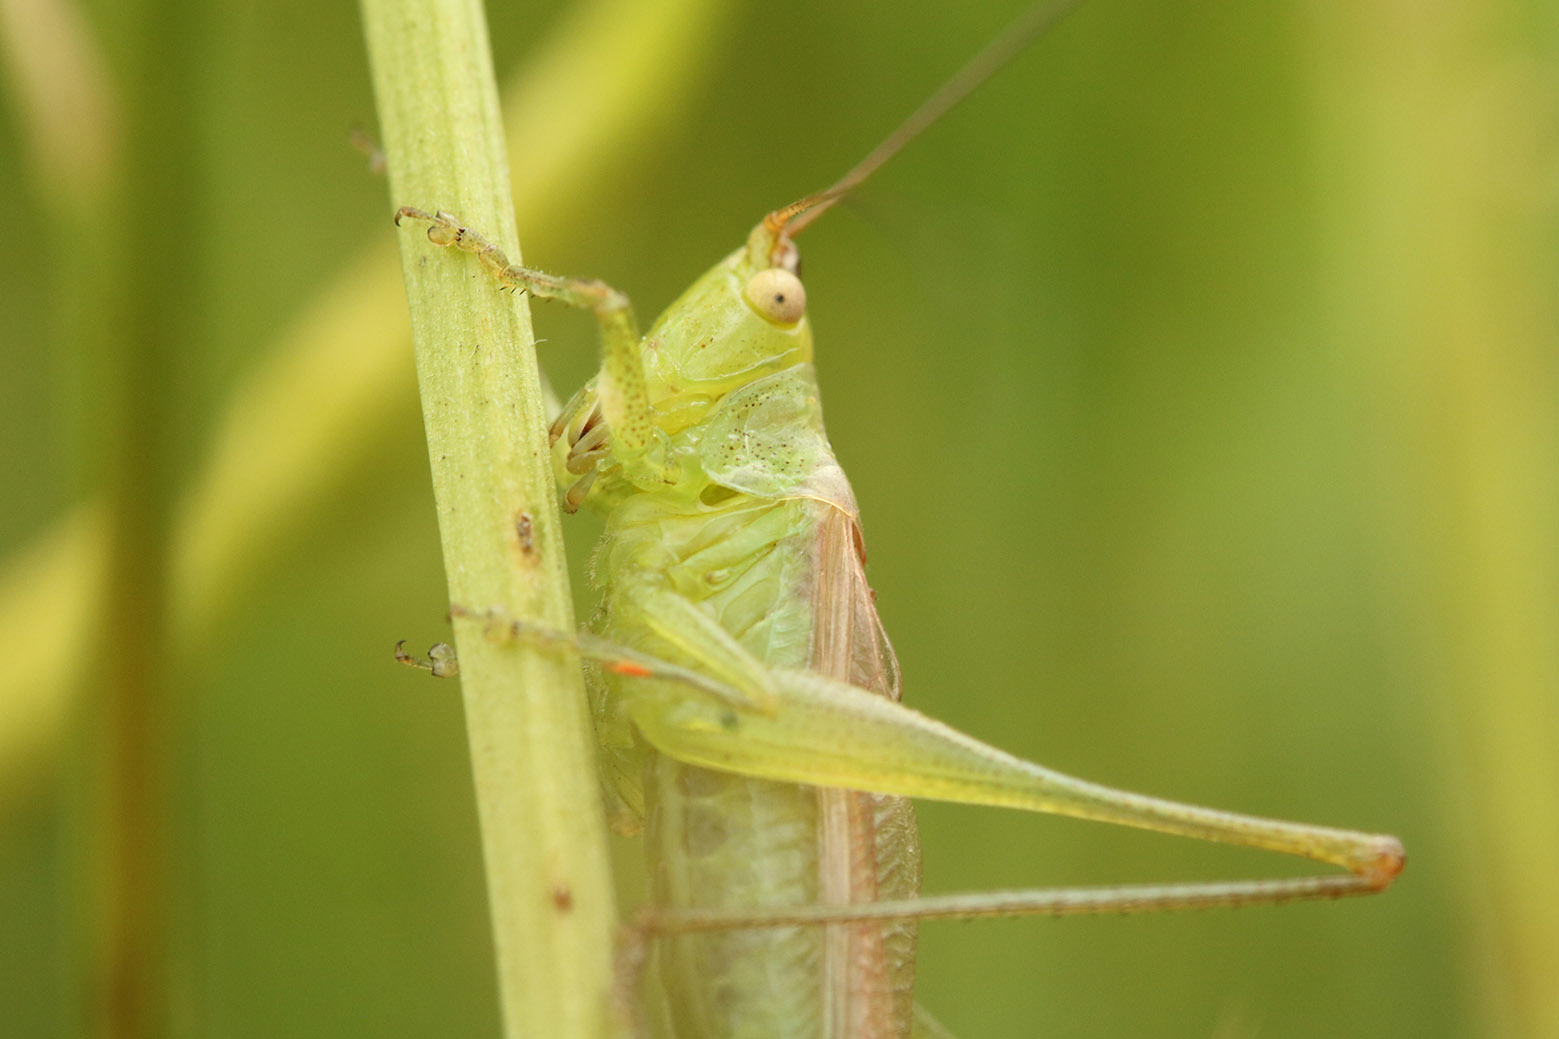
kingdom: Animalia
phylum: Arthropoda
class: Insecta
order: Orthoptera
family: Tettigoniidae
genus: Conocephalus
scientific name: Conocephalus longipes
